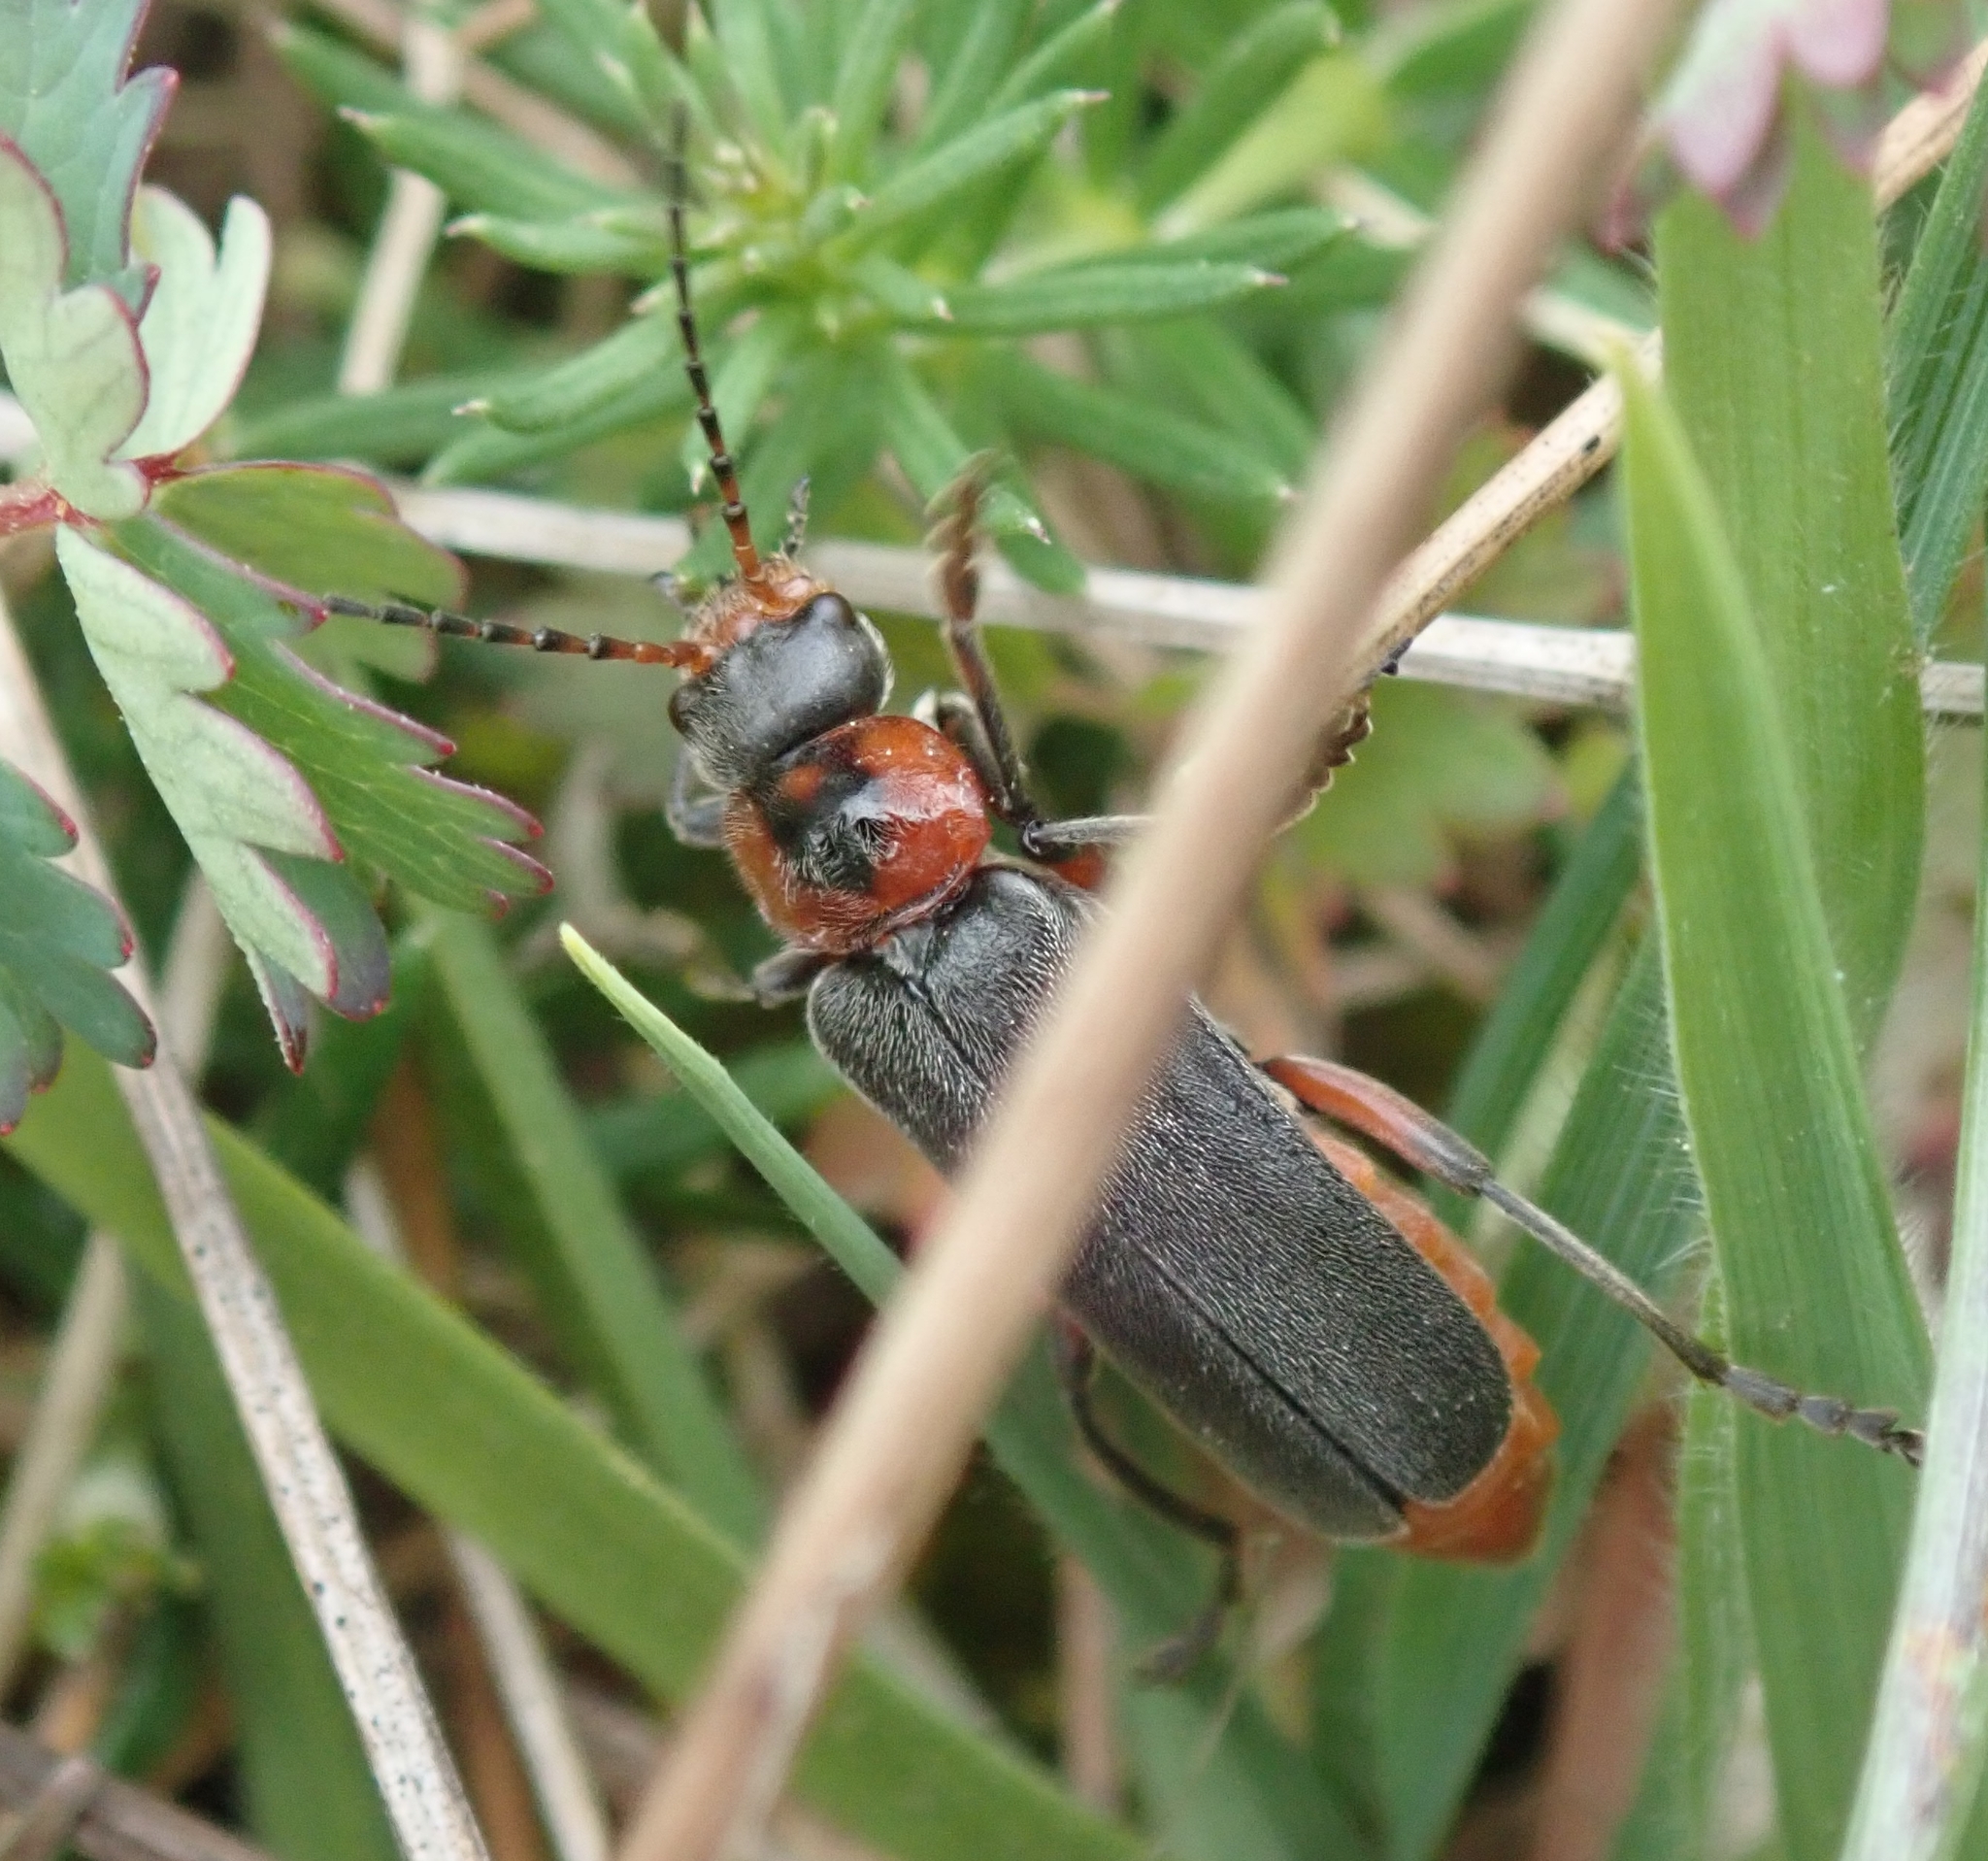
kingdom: Animalia
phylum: Arthropoda
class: Insecta
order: Coleoptera
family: Cantharidae
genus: Cantharis
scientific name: Cantharis rustica
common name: Soldier beetle
